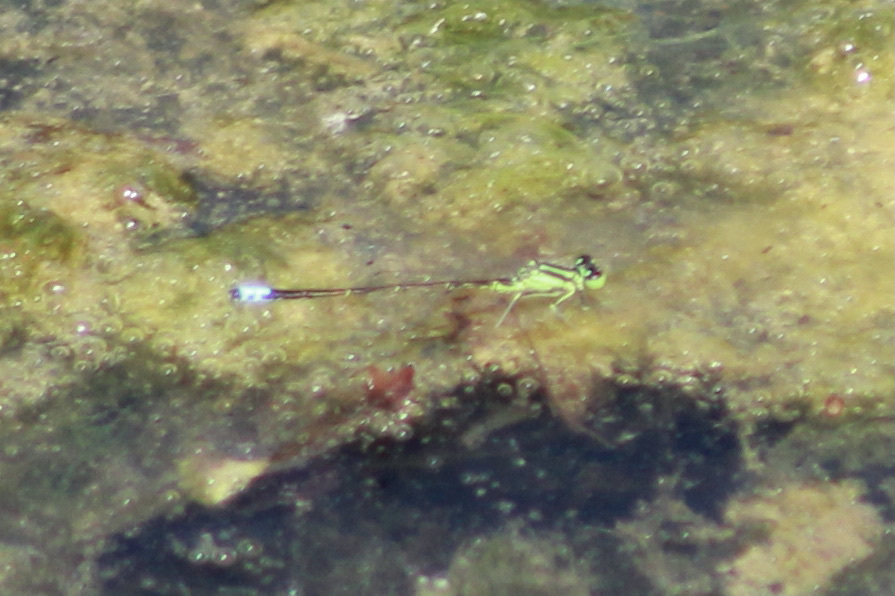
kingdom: Animalia
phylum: Arthropoda
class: Insecta
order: Odonata
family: Coenagrionidae
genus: Ischnura
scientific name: Ischnura verticalis
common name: Eastern forktail
